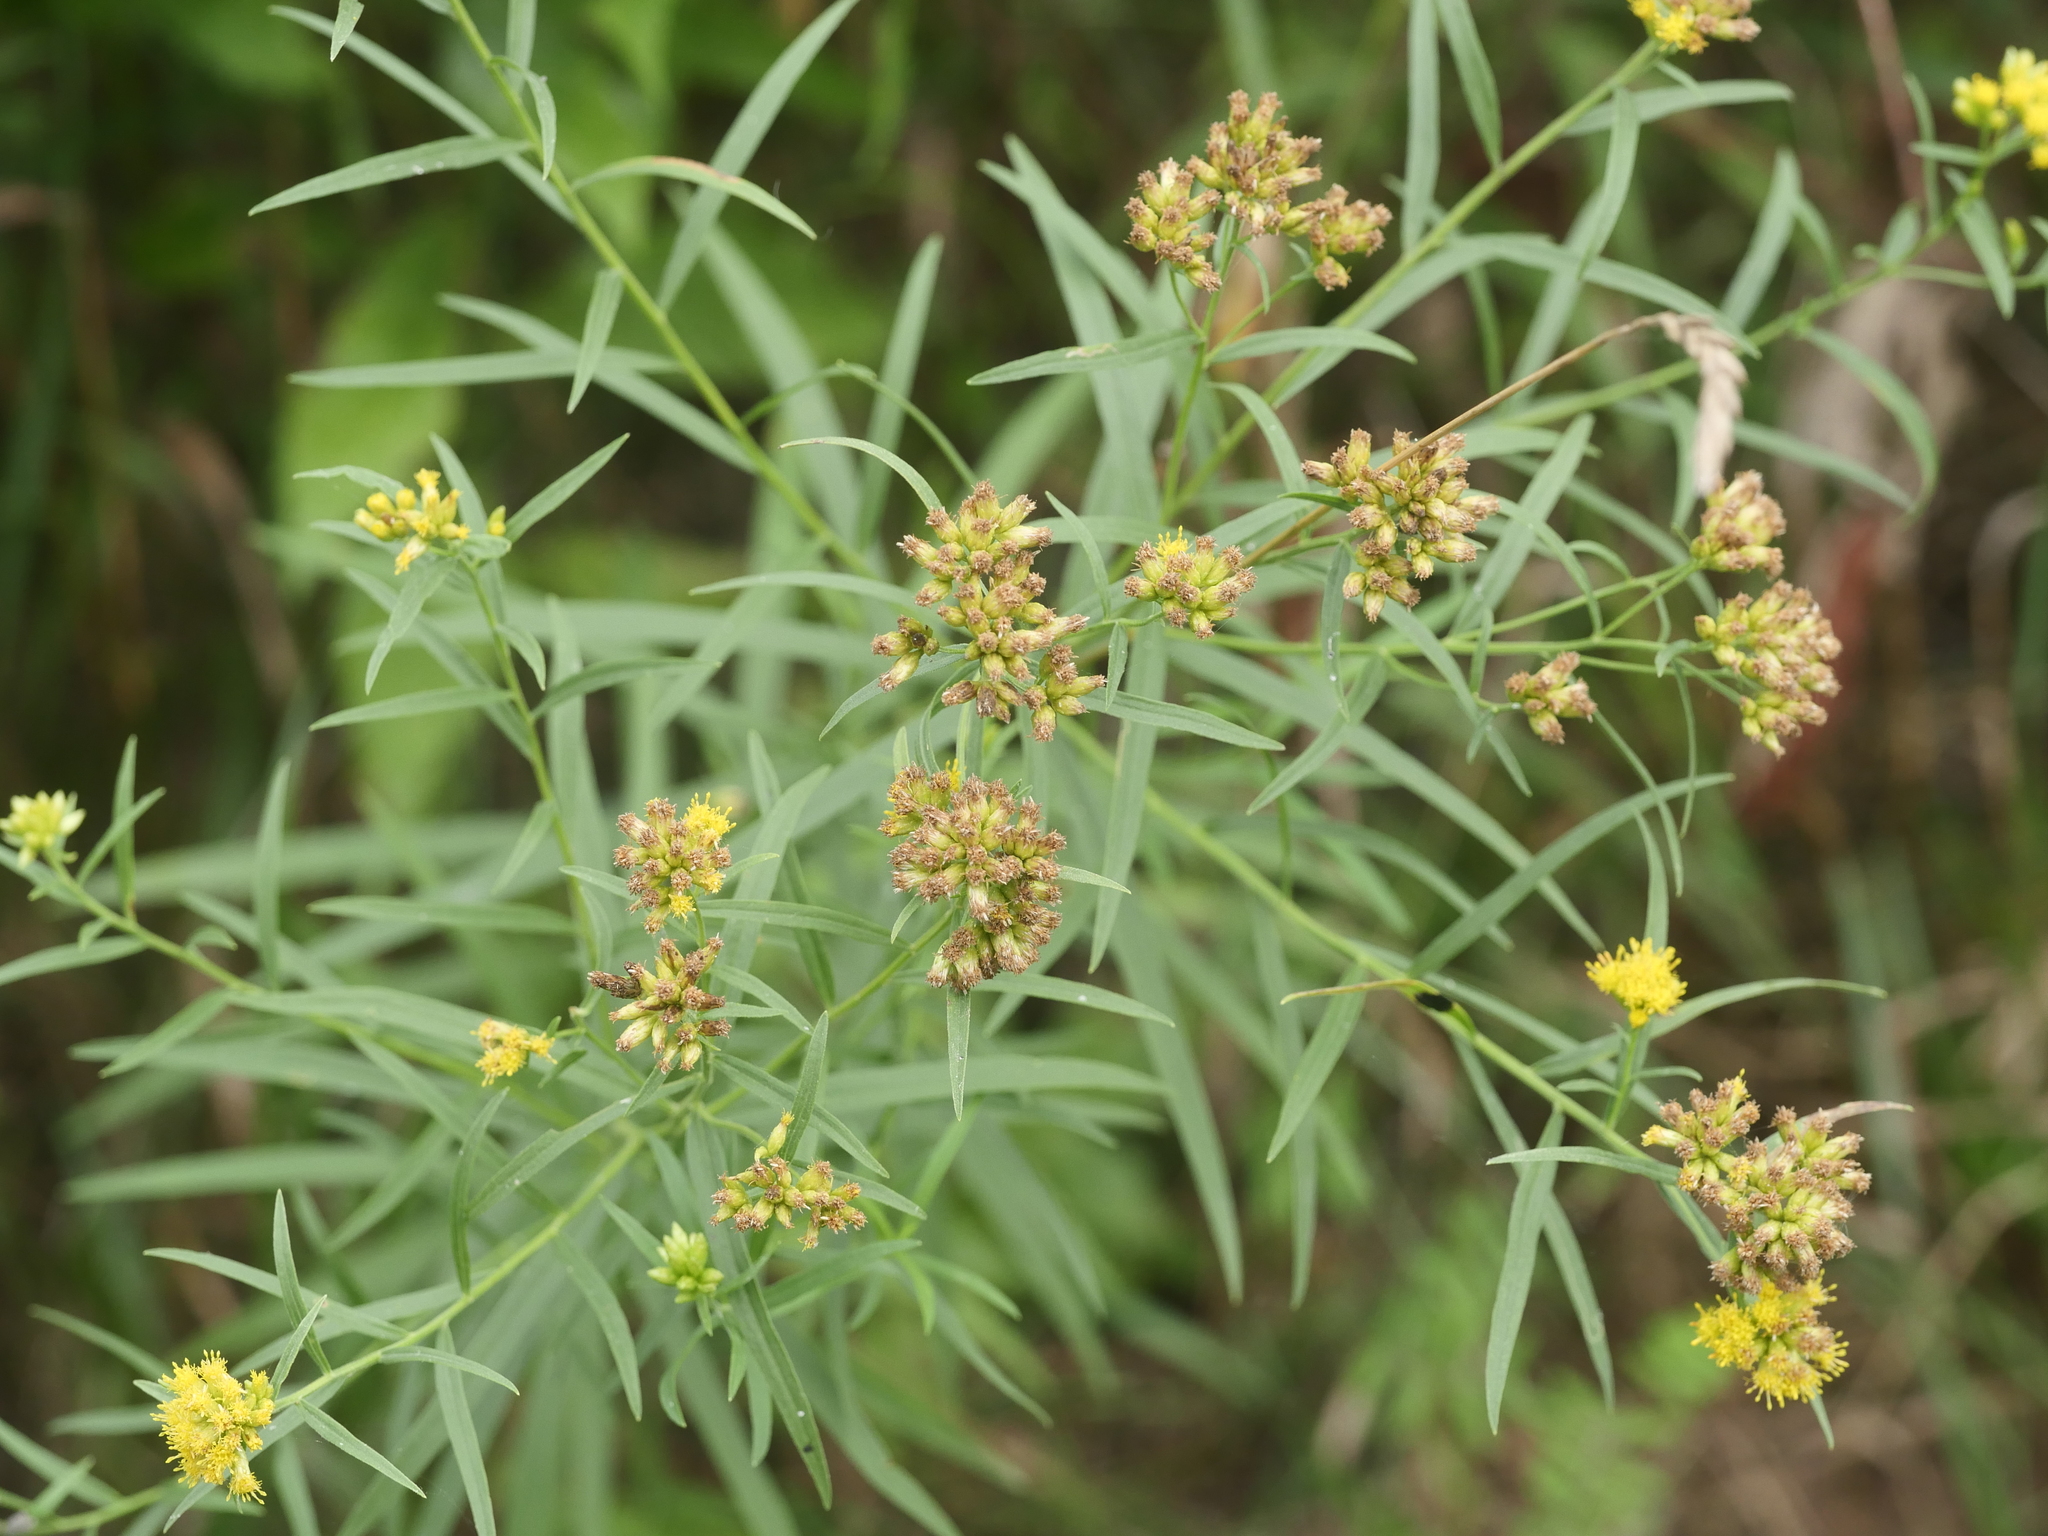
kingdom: Plantae
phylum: Tracheophyta
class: Magnoliopsida
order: Asterales
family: Asteraceae
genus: Euthamia
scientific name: Euthamia graminifolia
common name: Common goldentop
